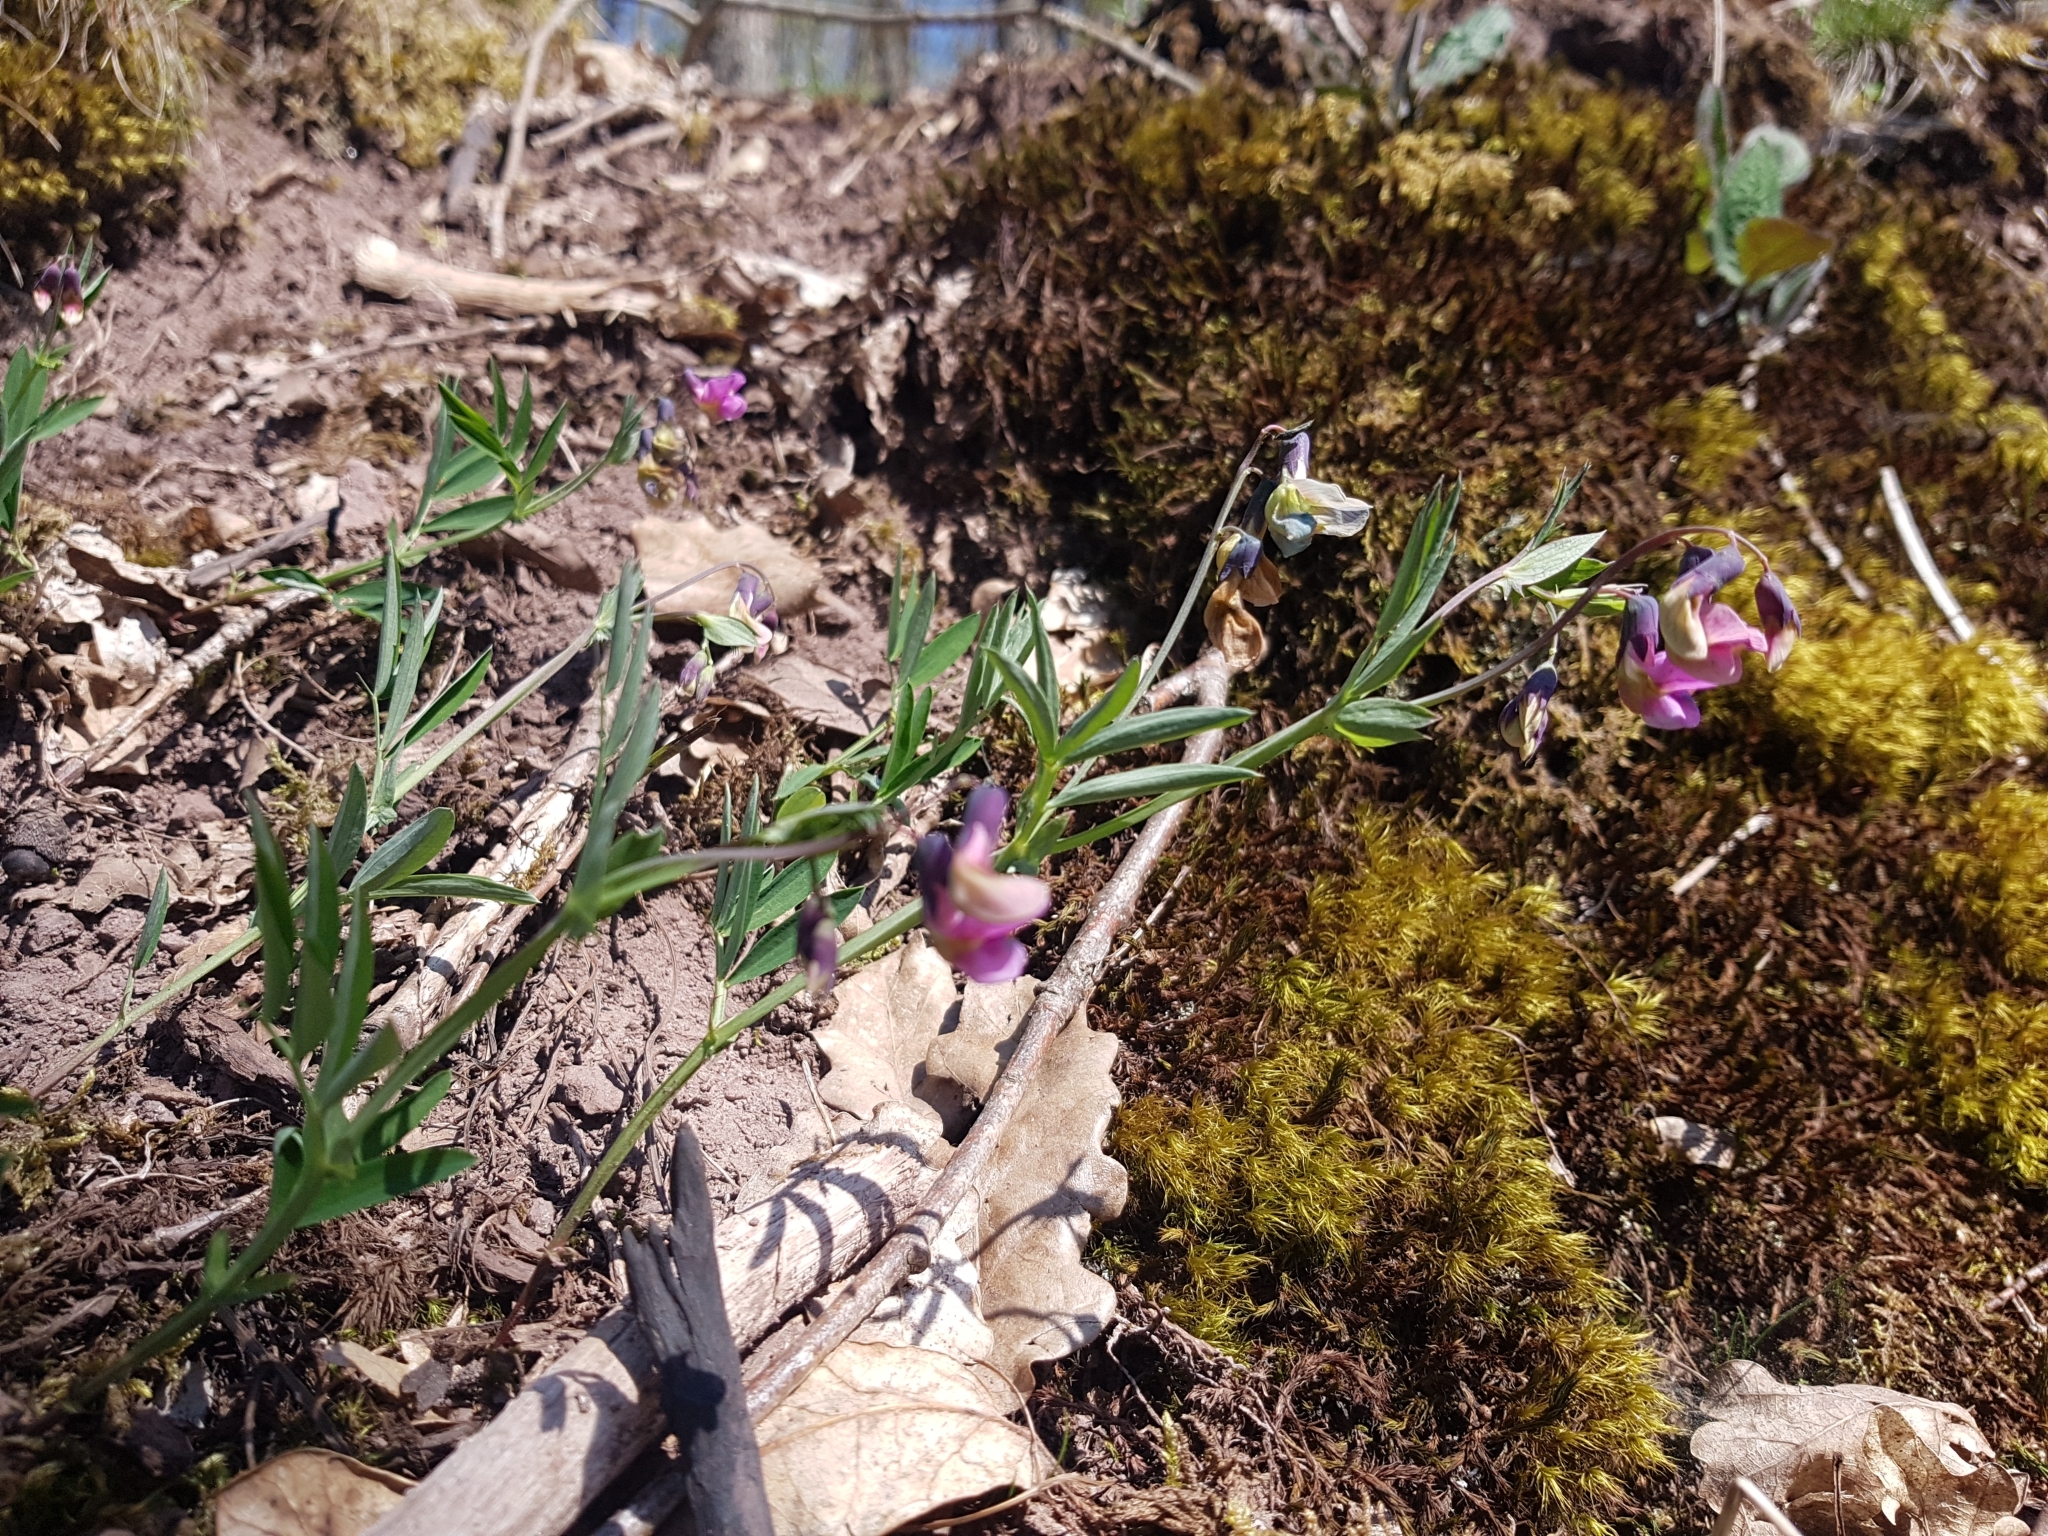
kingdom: Plantae
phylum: Tracheophyta
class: Magnoliopsida
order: Fabales
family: Fabaceae
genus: Lathyrus
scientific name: Lathyrus linifolius
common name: Bitter-vetch
